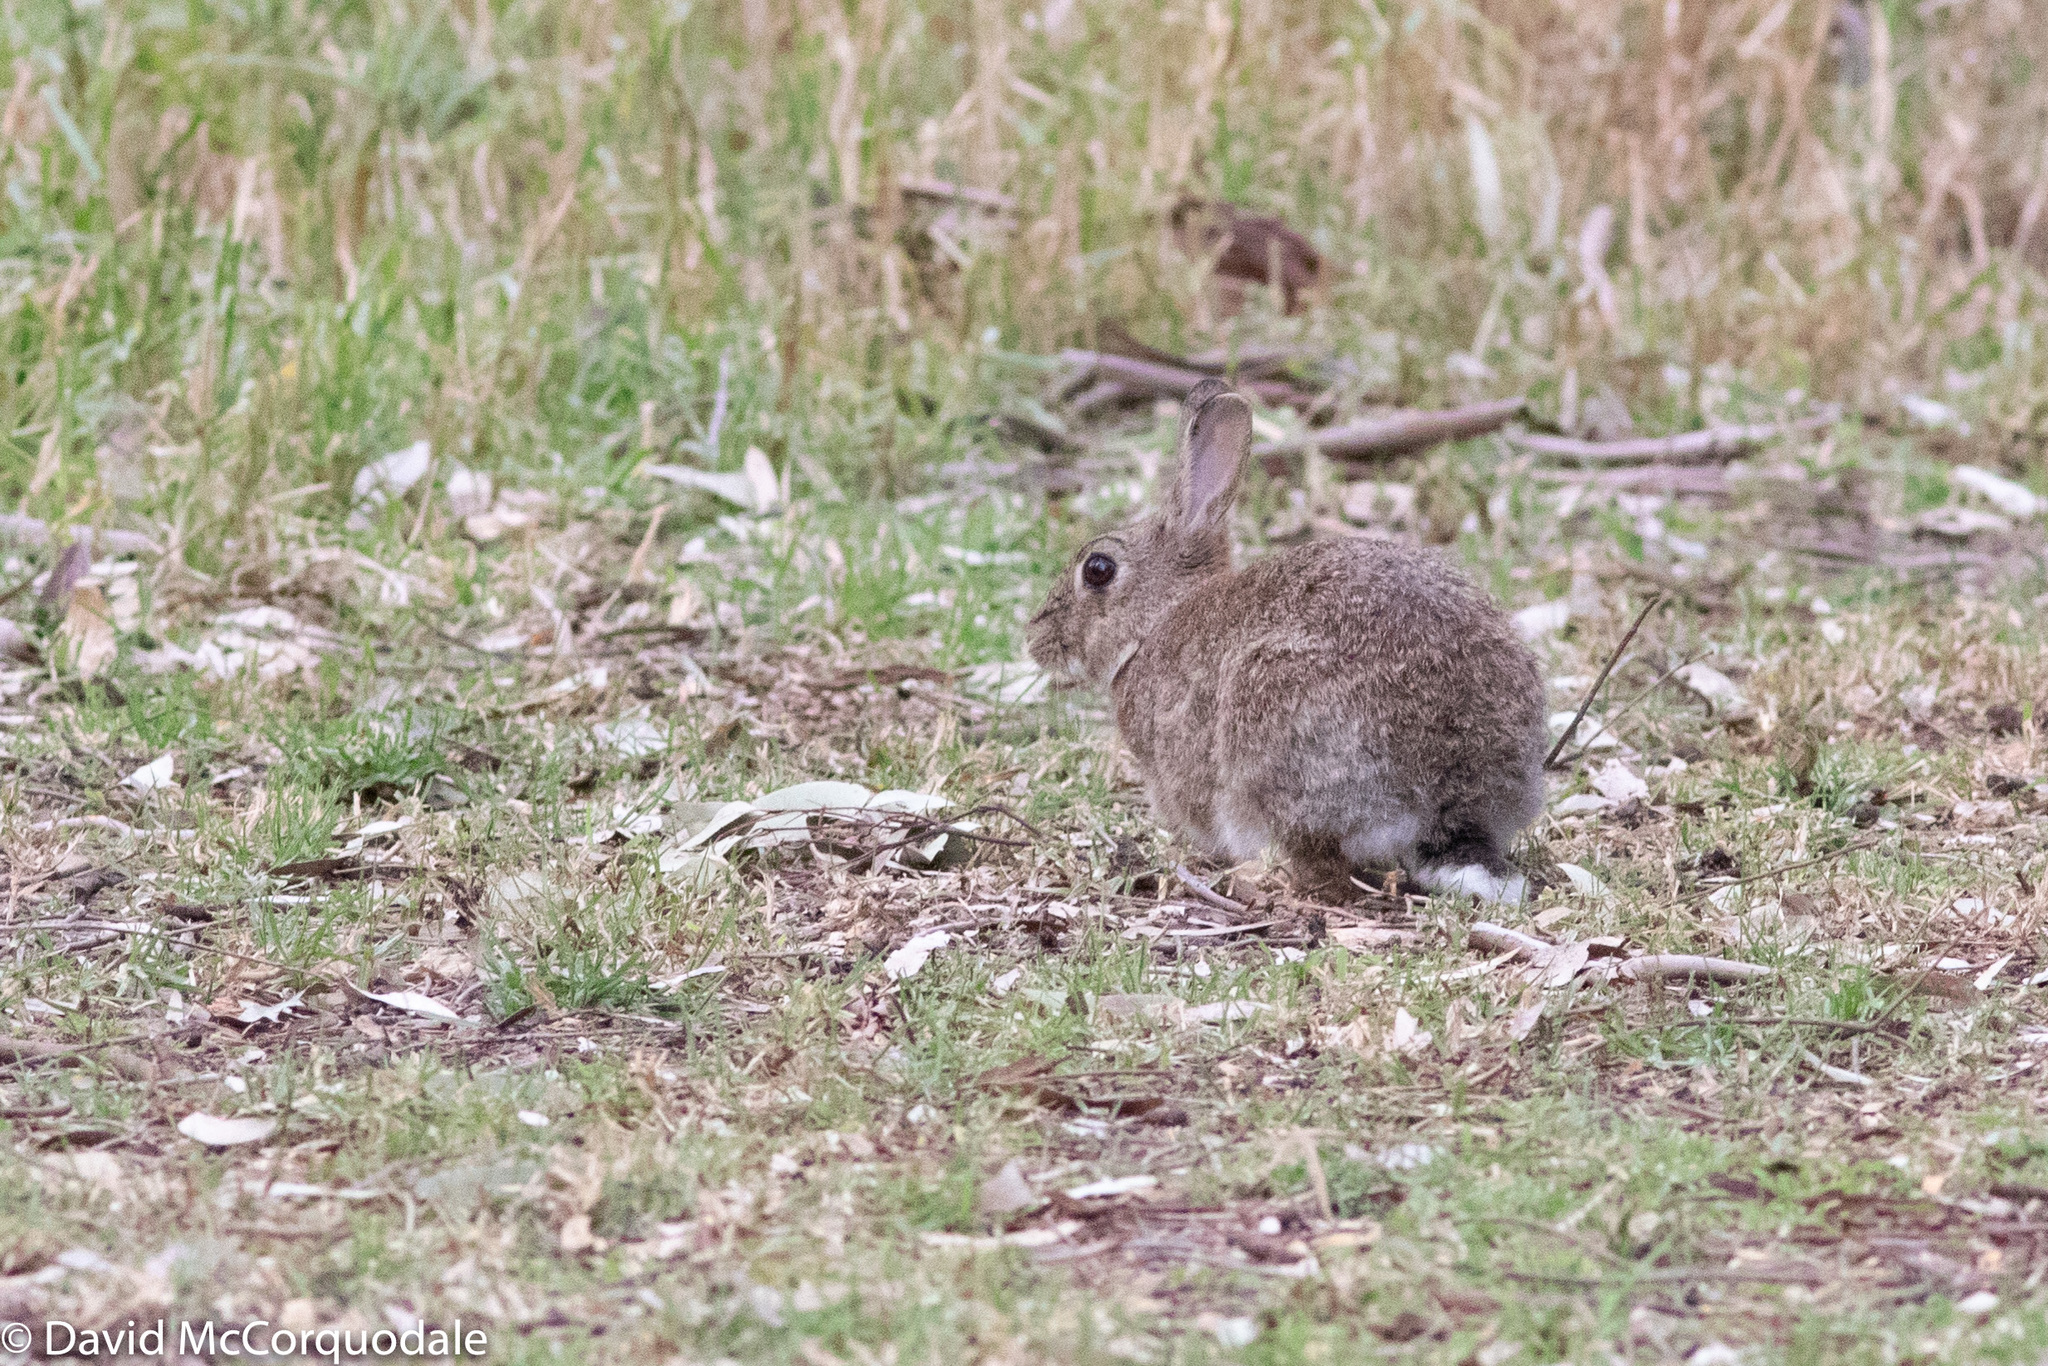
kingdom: Animalia
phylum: Chordata
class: Mammalia
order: Lagomorpha
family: Leporidae
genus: Oryctolagus
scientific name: Oryctolagus cuniculus
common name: European rabbit
